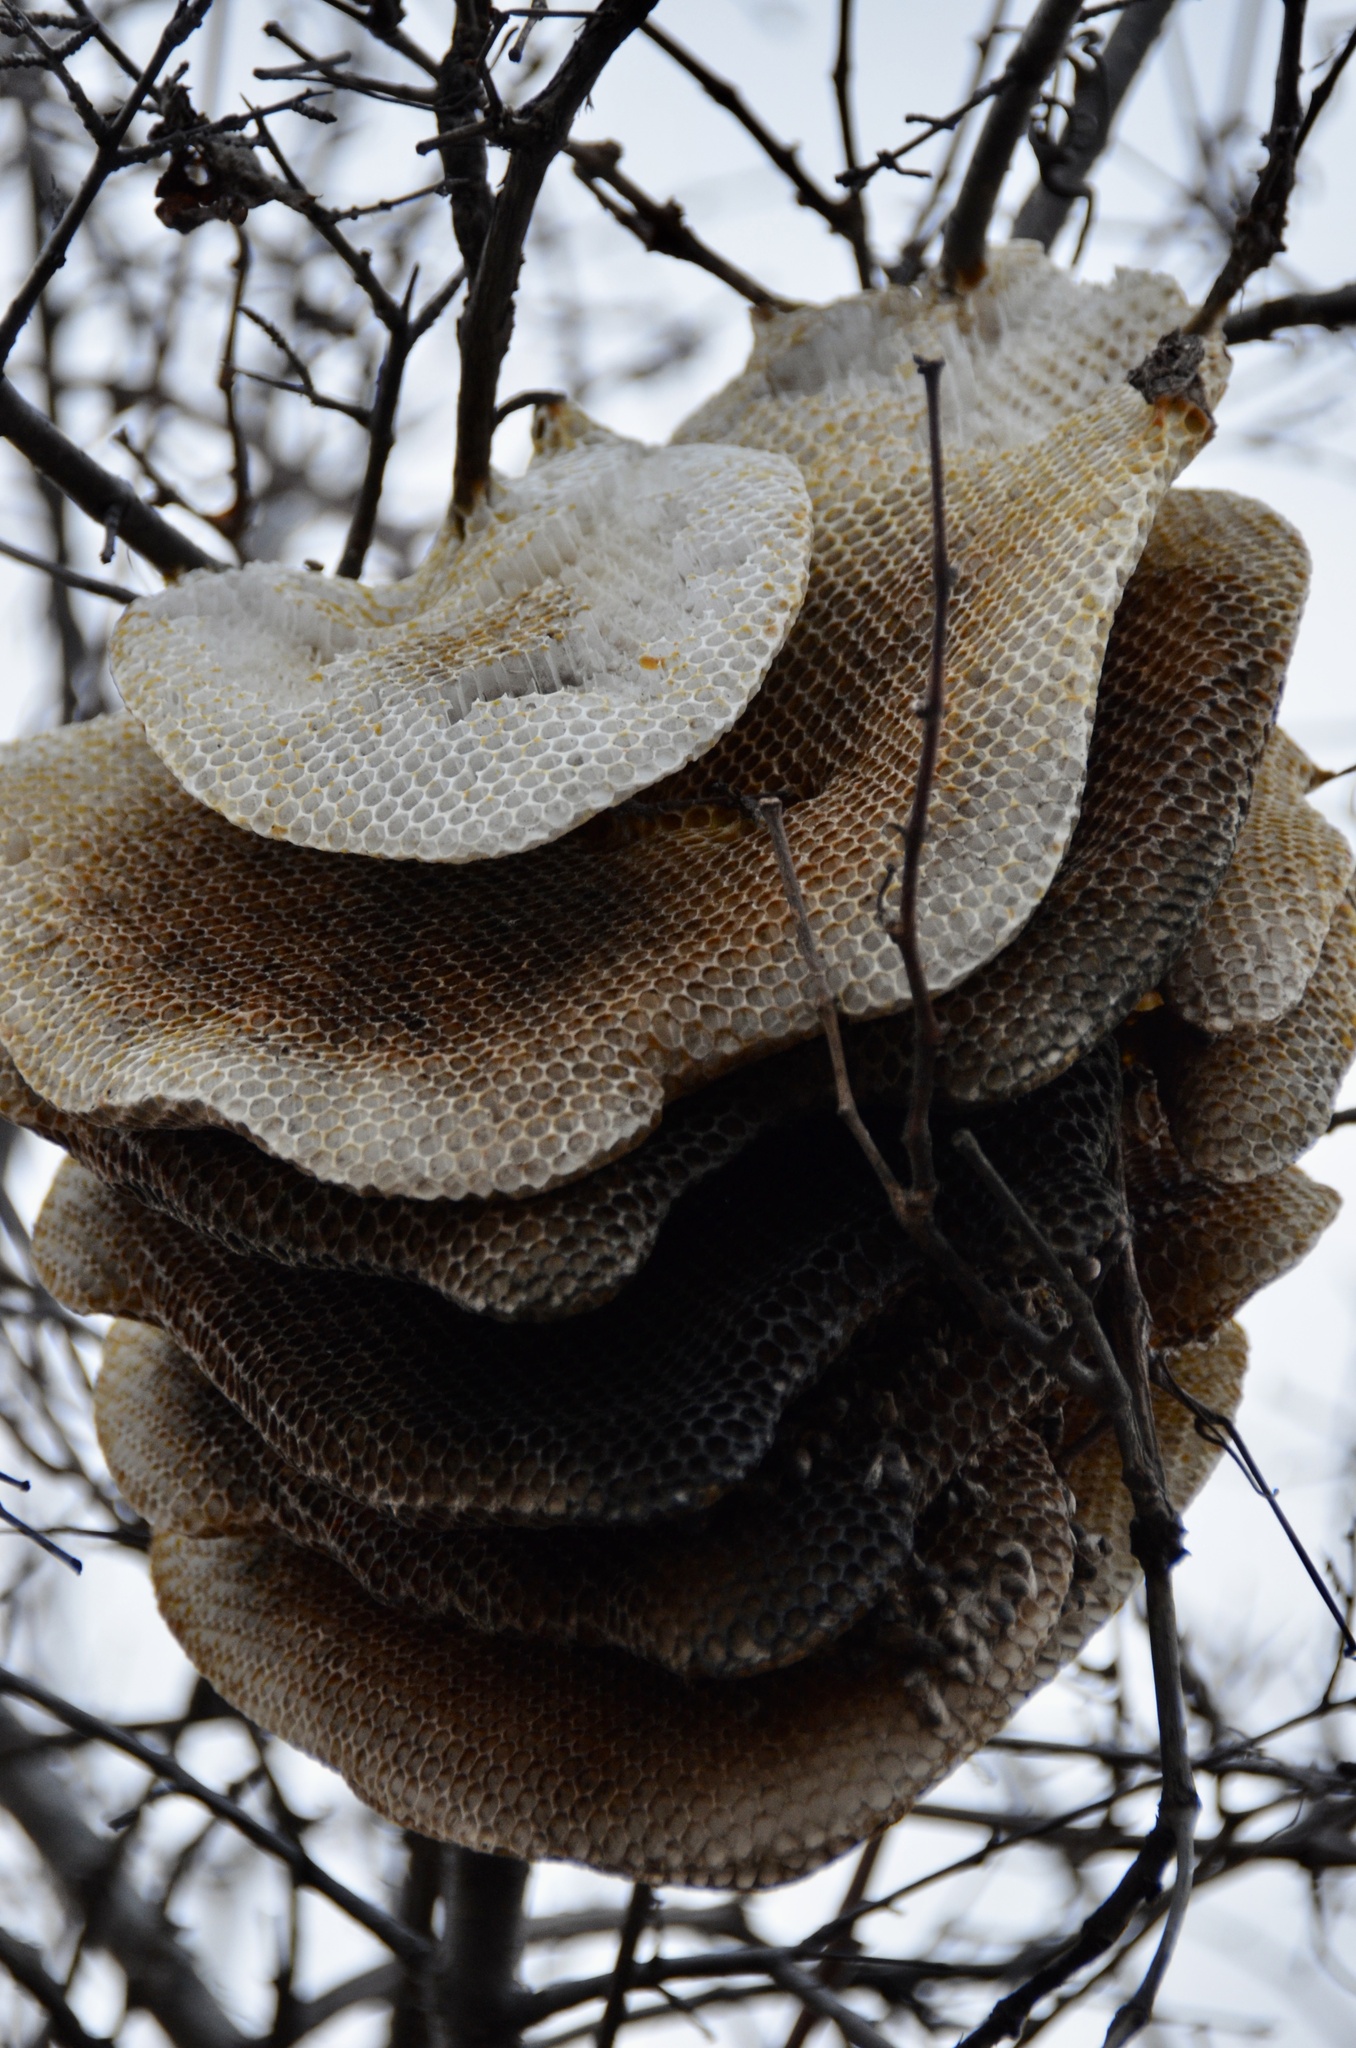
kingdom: Animalia
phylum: Arthropoda
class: Insecta
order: Hymenoptera
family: Apidae
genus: Apis
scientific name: Apis mellifera
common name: Honey bee
